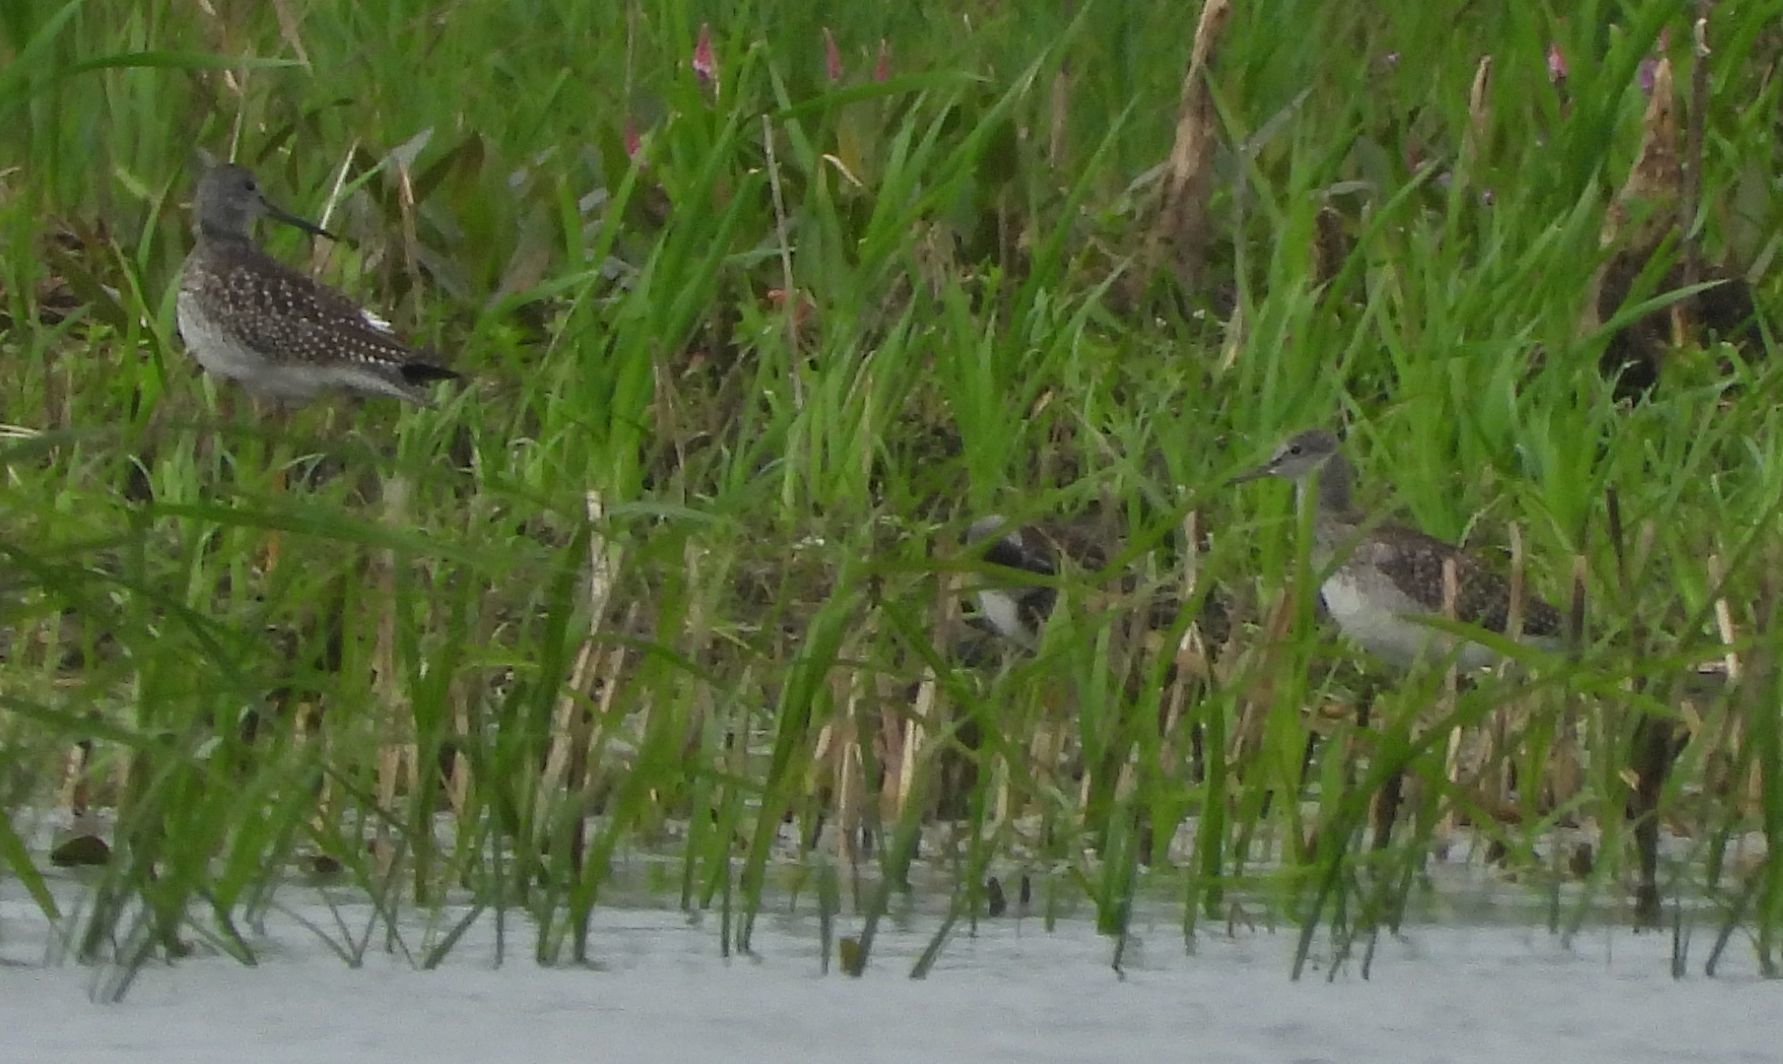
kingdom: Animalia
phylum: Chordata
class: Aves
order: Charadriiformes
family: Scolopacidae
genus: Tringa
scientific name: Tringa melanoleuca
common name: Greater yellowlegs
